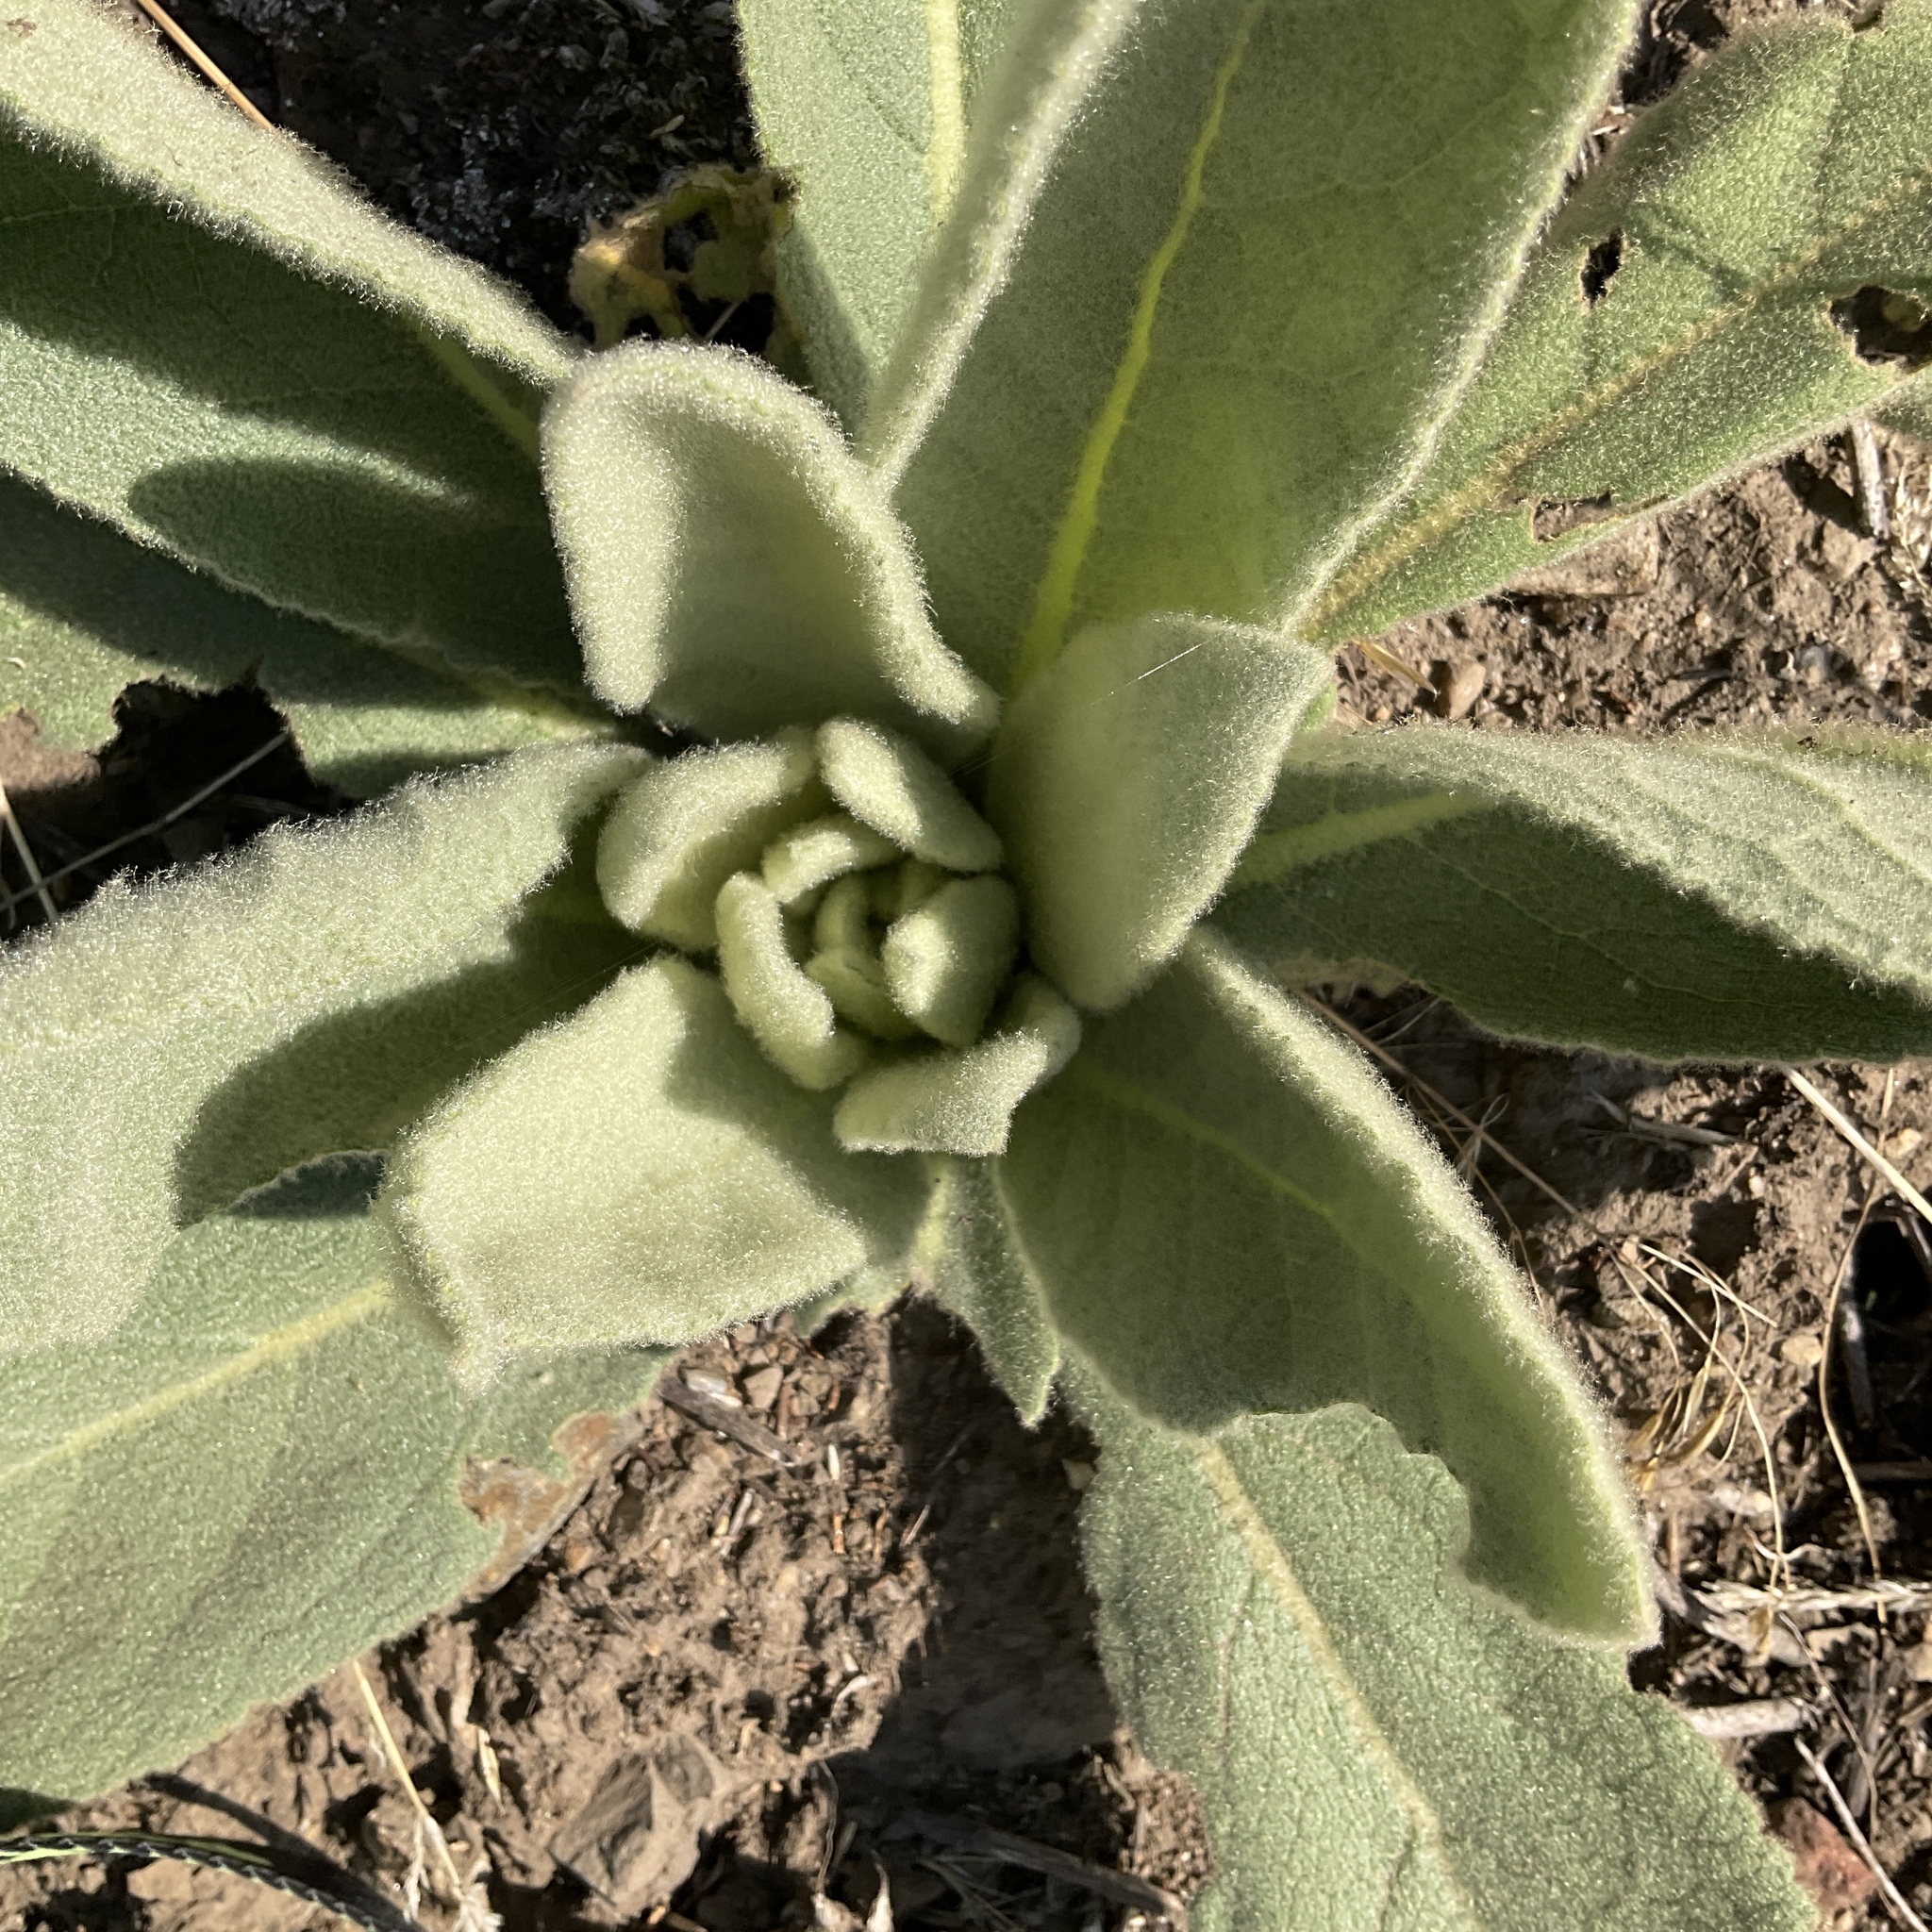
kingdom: Plantae
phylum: Tracheophyta
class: Magnoliopsida
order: Lamiales
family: Scrophulariaceae
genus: Verbascum
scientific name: Verbascum thapsus
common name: Common mullein
